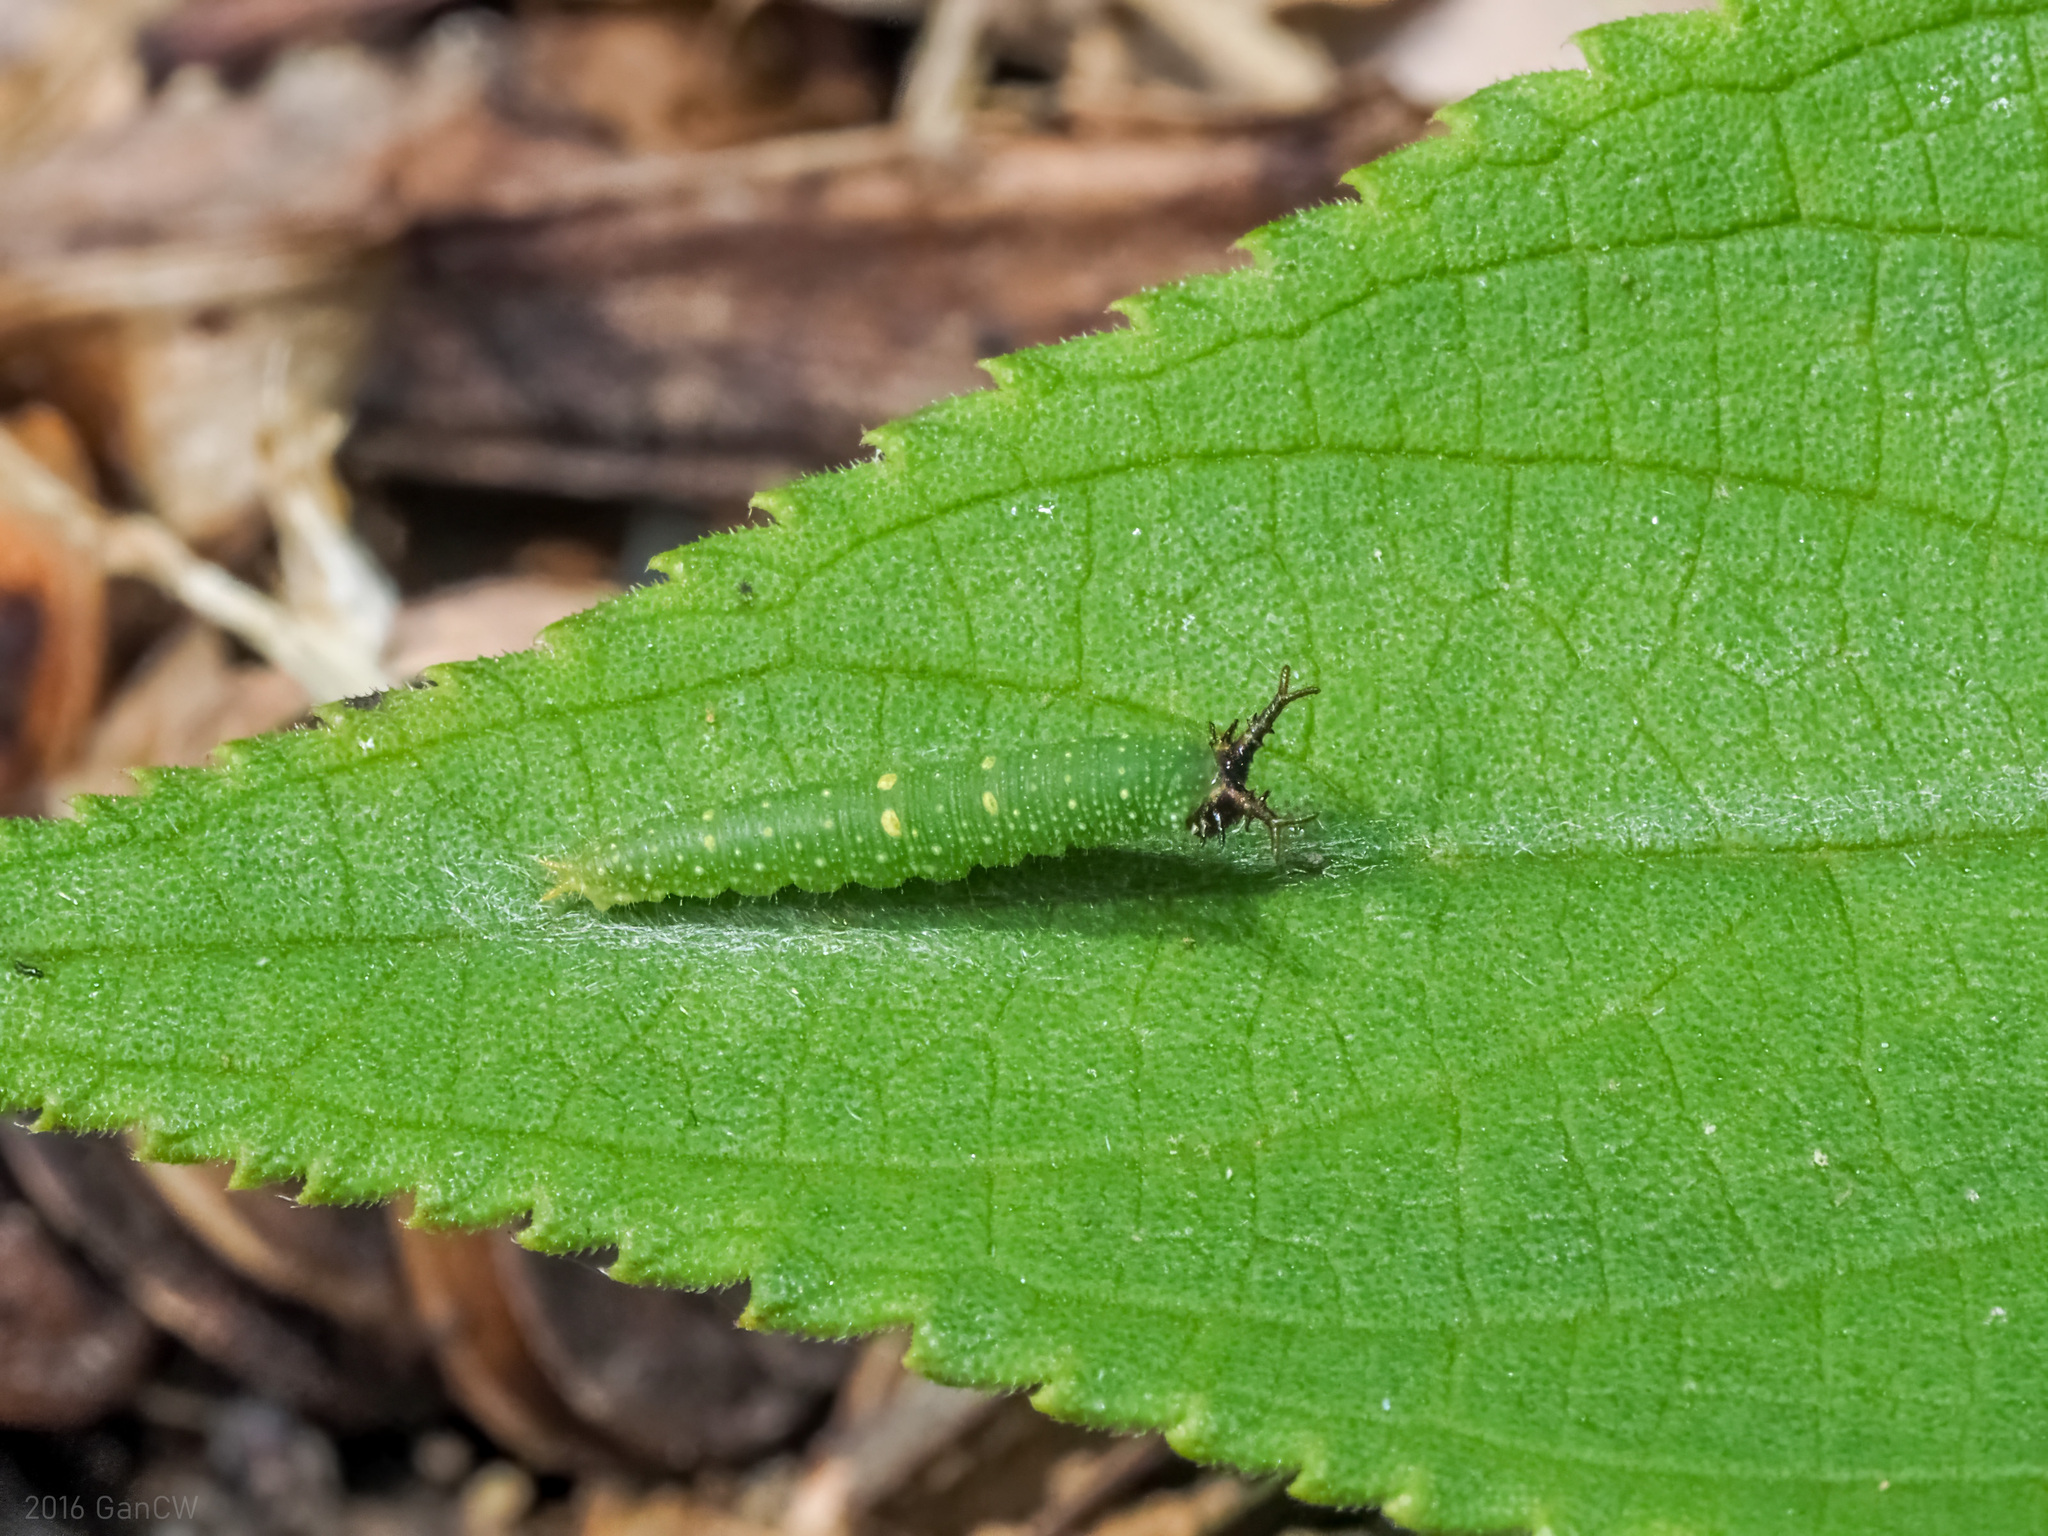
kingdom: Animalia
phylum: Arthropoda
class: Insecta
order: Lepidoptera
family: Nymphalidae
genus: Euripus
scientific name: Euripus nyctelius
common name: Courtesan
